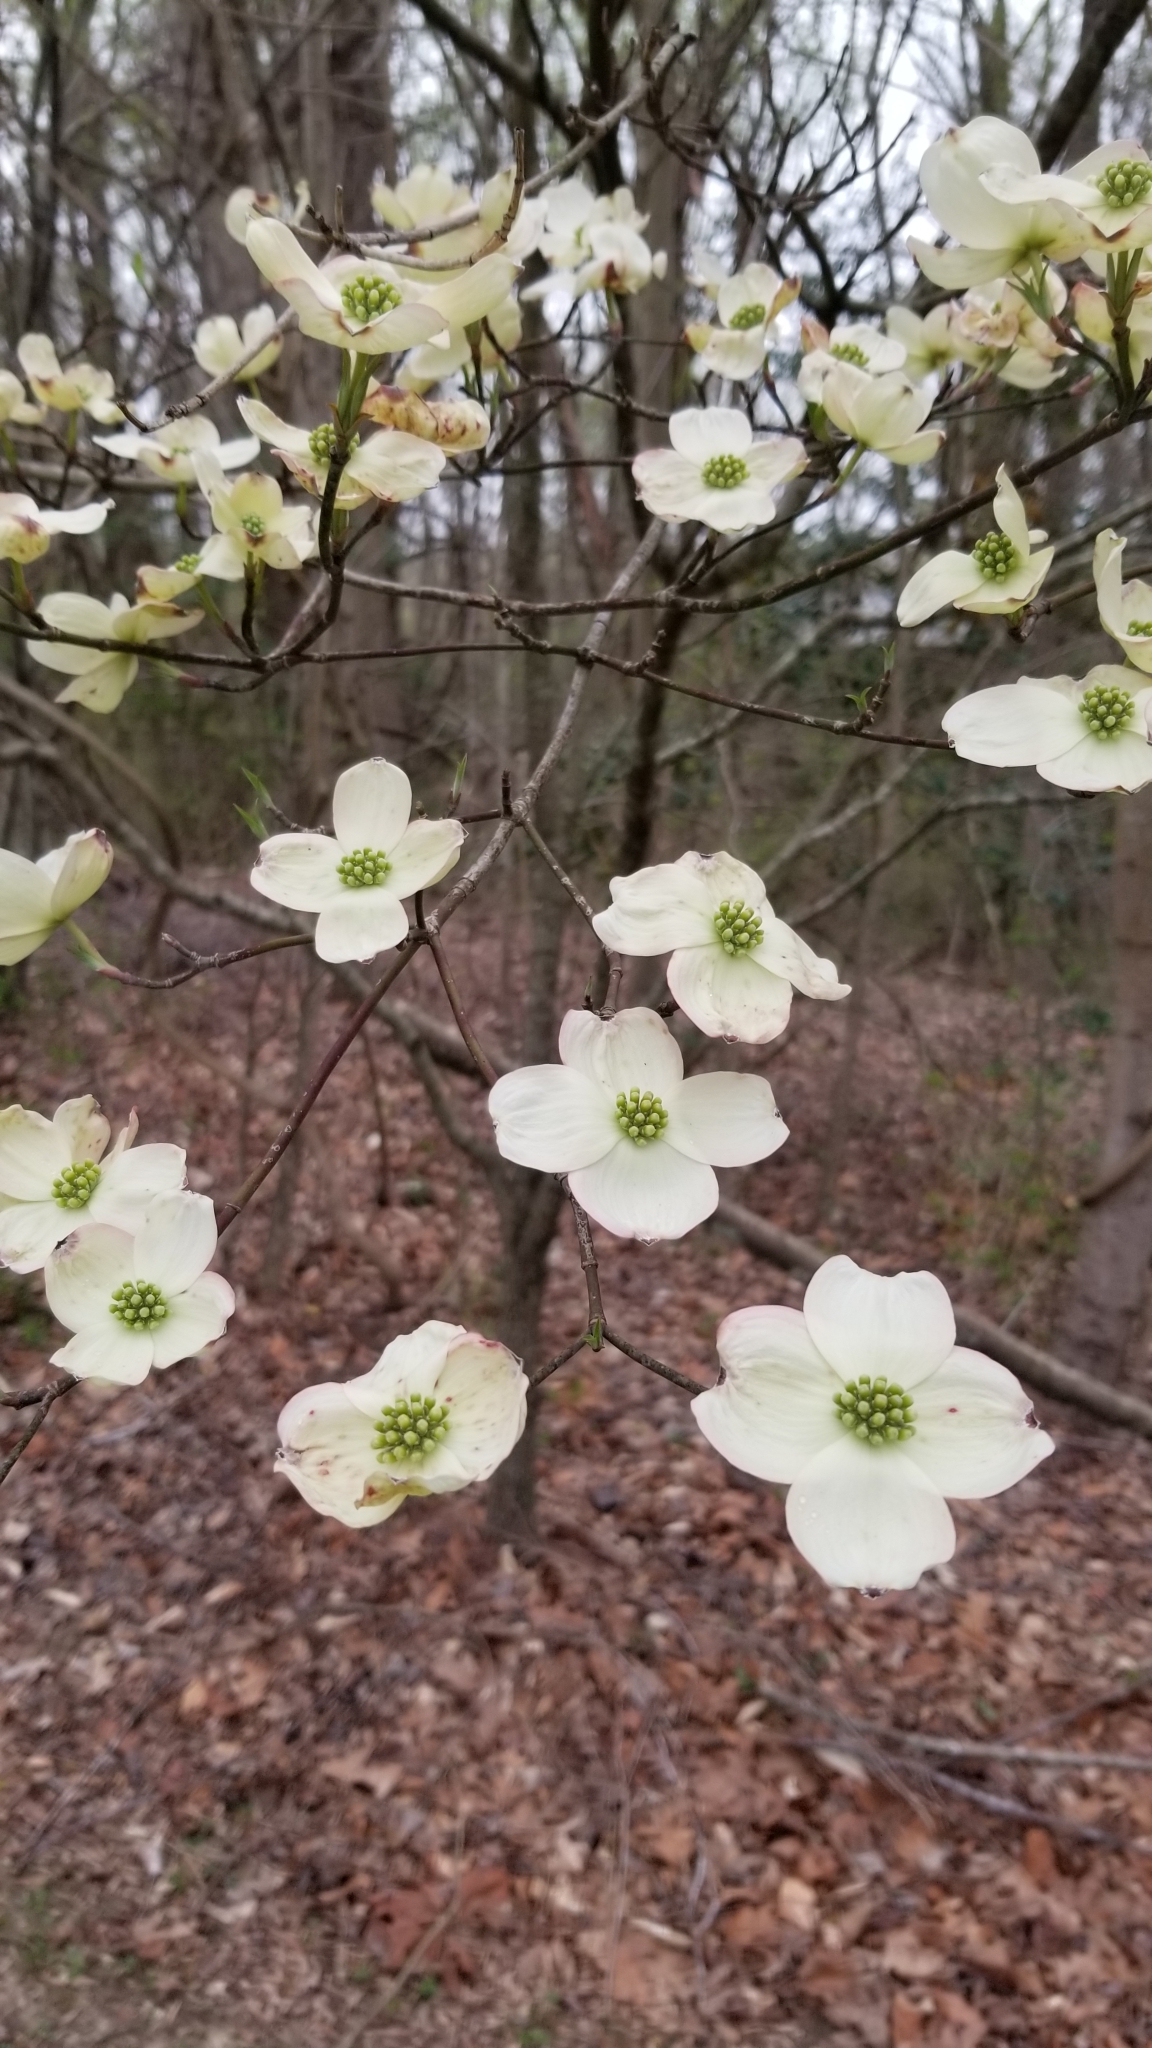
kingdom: Plantae
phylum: Tracheophyta
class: Magnoliopsida
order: Cornales
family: Cornaceae
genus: Cornus
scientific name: Cornus florida
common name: Flowering dogwood
